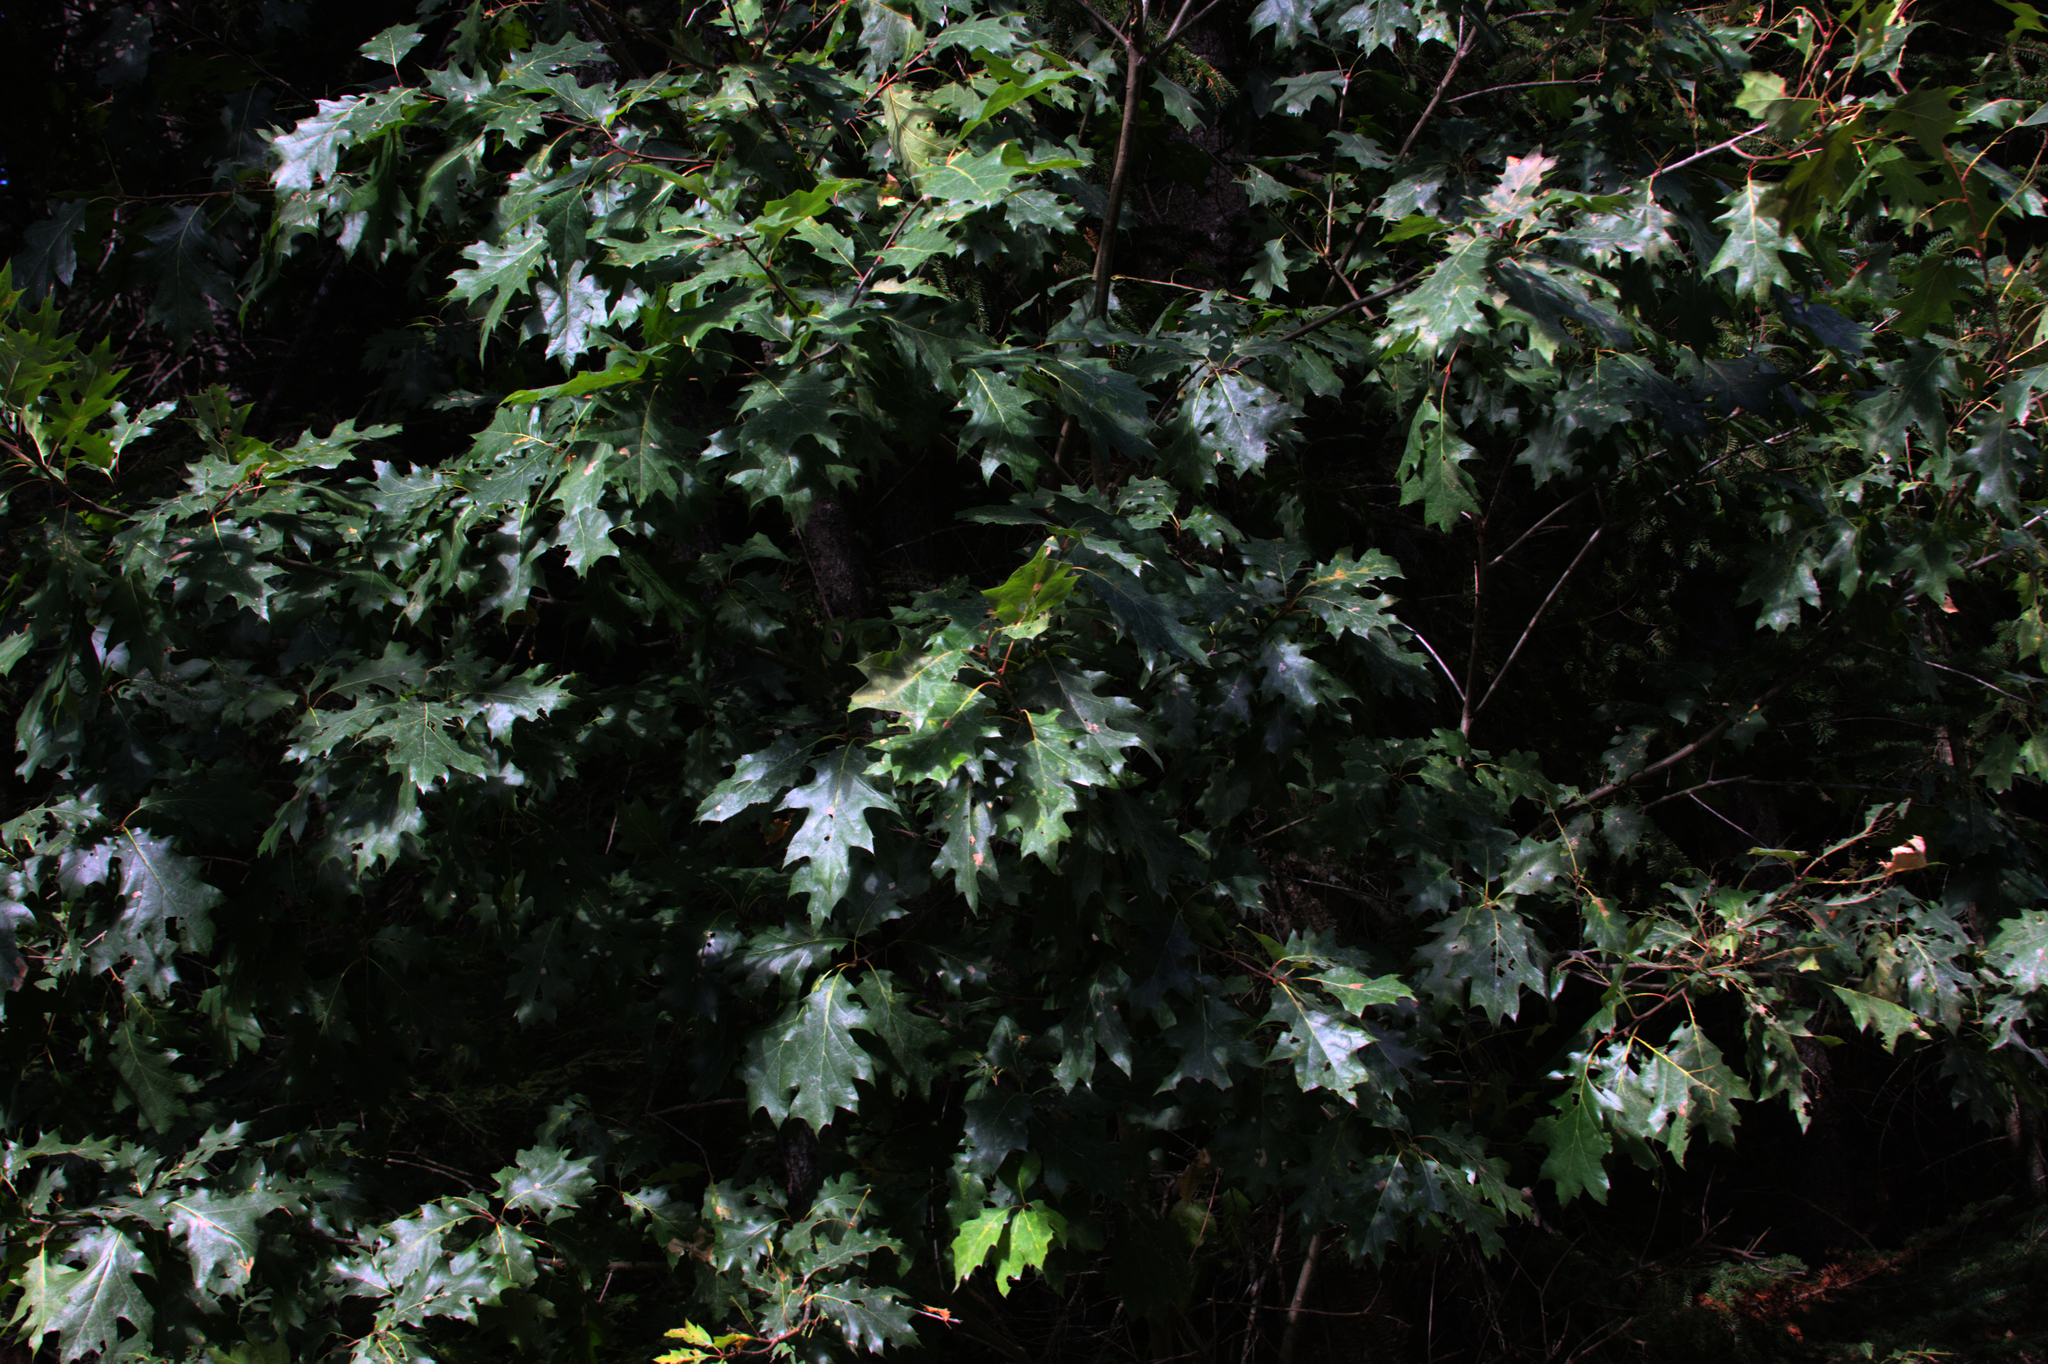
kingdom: Plantae
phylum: Tracheophyta
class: Magnoliopsida
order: Fagales
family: Fagaceae
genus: Quercus
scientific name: Quercus rubra
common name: Red oak
